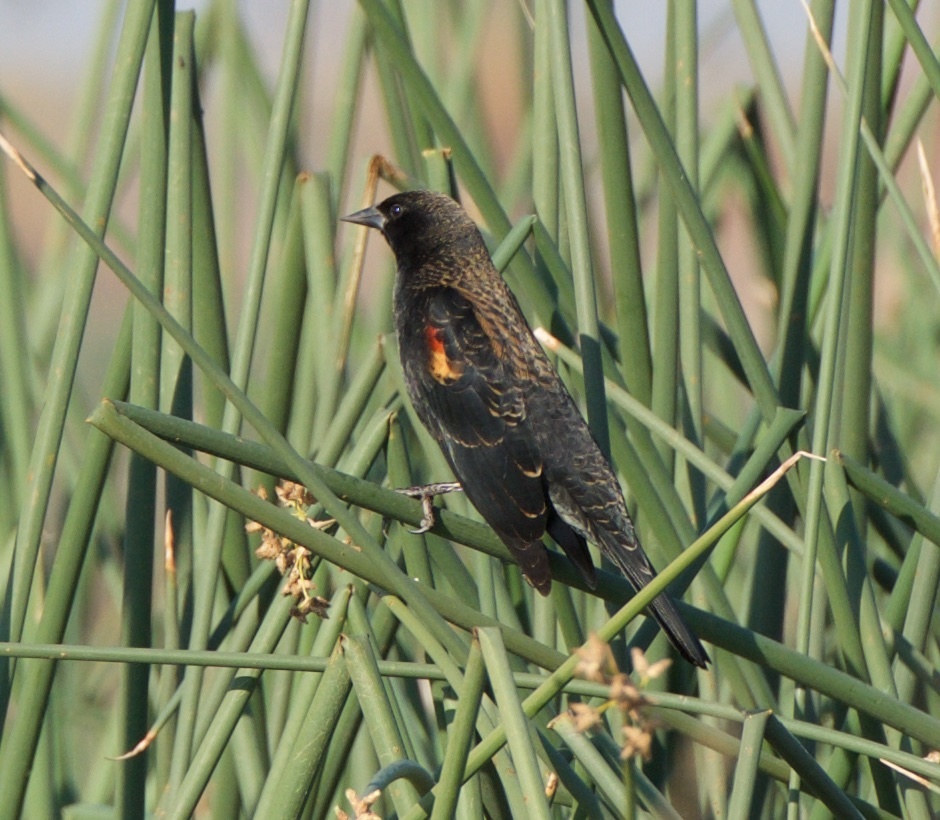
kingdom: Animalia
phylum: Chordata
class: Aves
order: Passeriformes
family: Icteridae
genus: Agelaius
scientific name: Agelaius phoeniceus
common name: Red-winged blackbird
